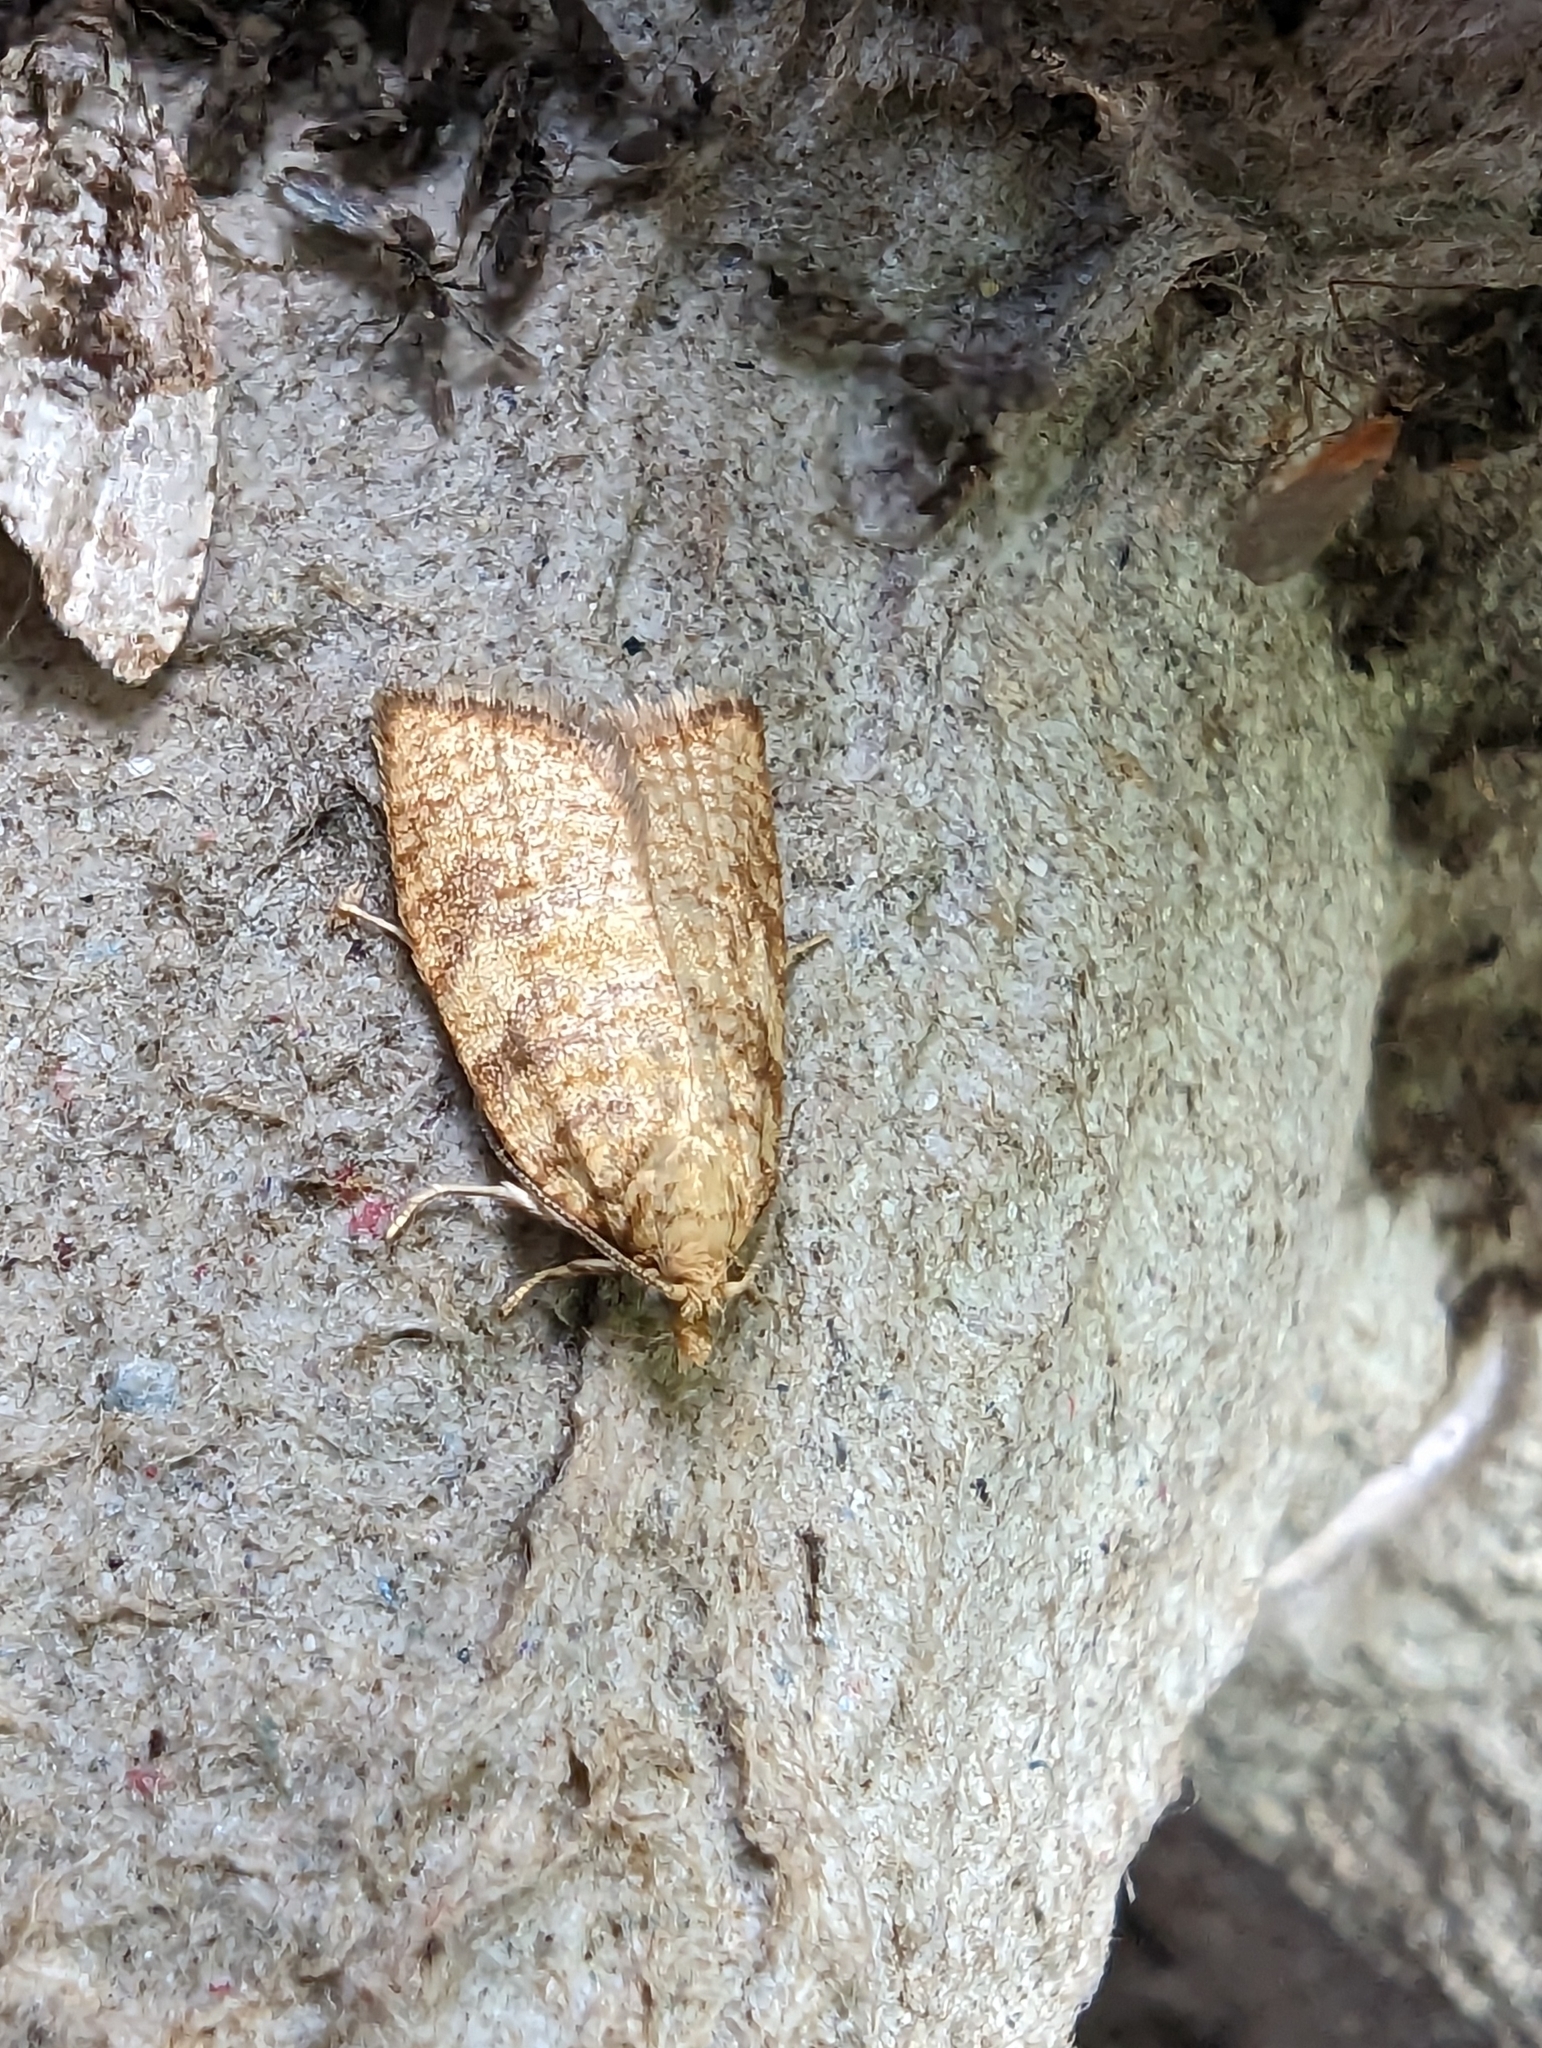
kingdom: Animalia
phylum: Arthropoda
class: Insecta
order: Lepidoptera
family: Tortricidae
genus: Aleimma
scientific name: Aleimma loeflingiana
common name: Yellow oak button
